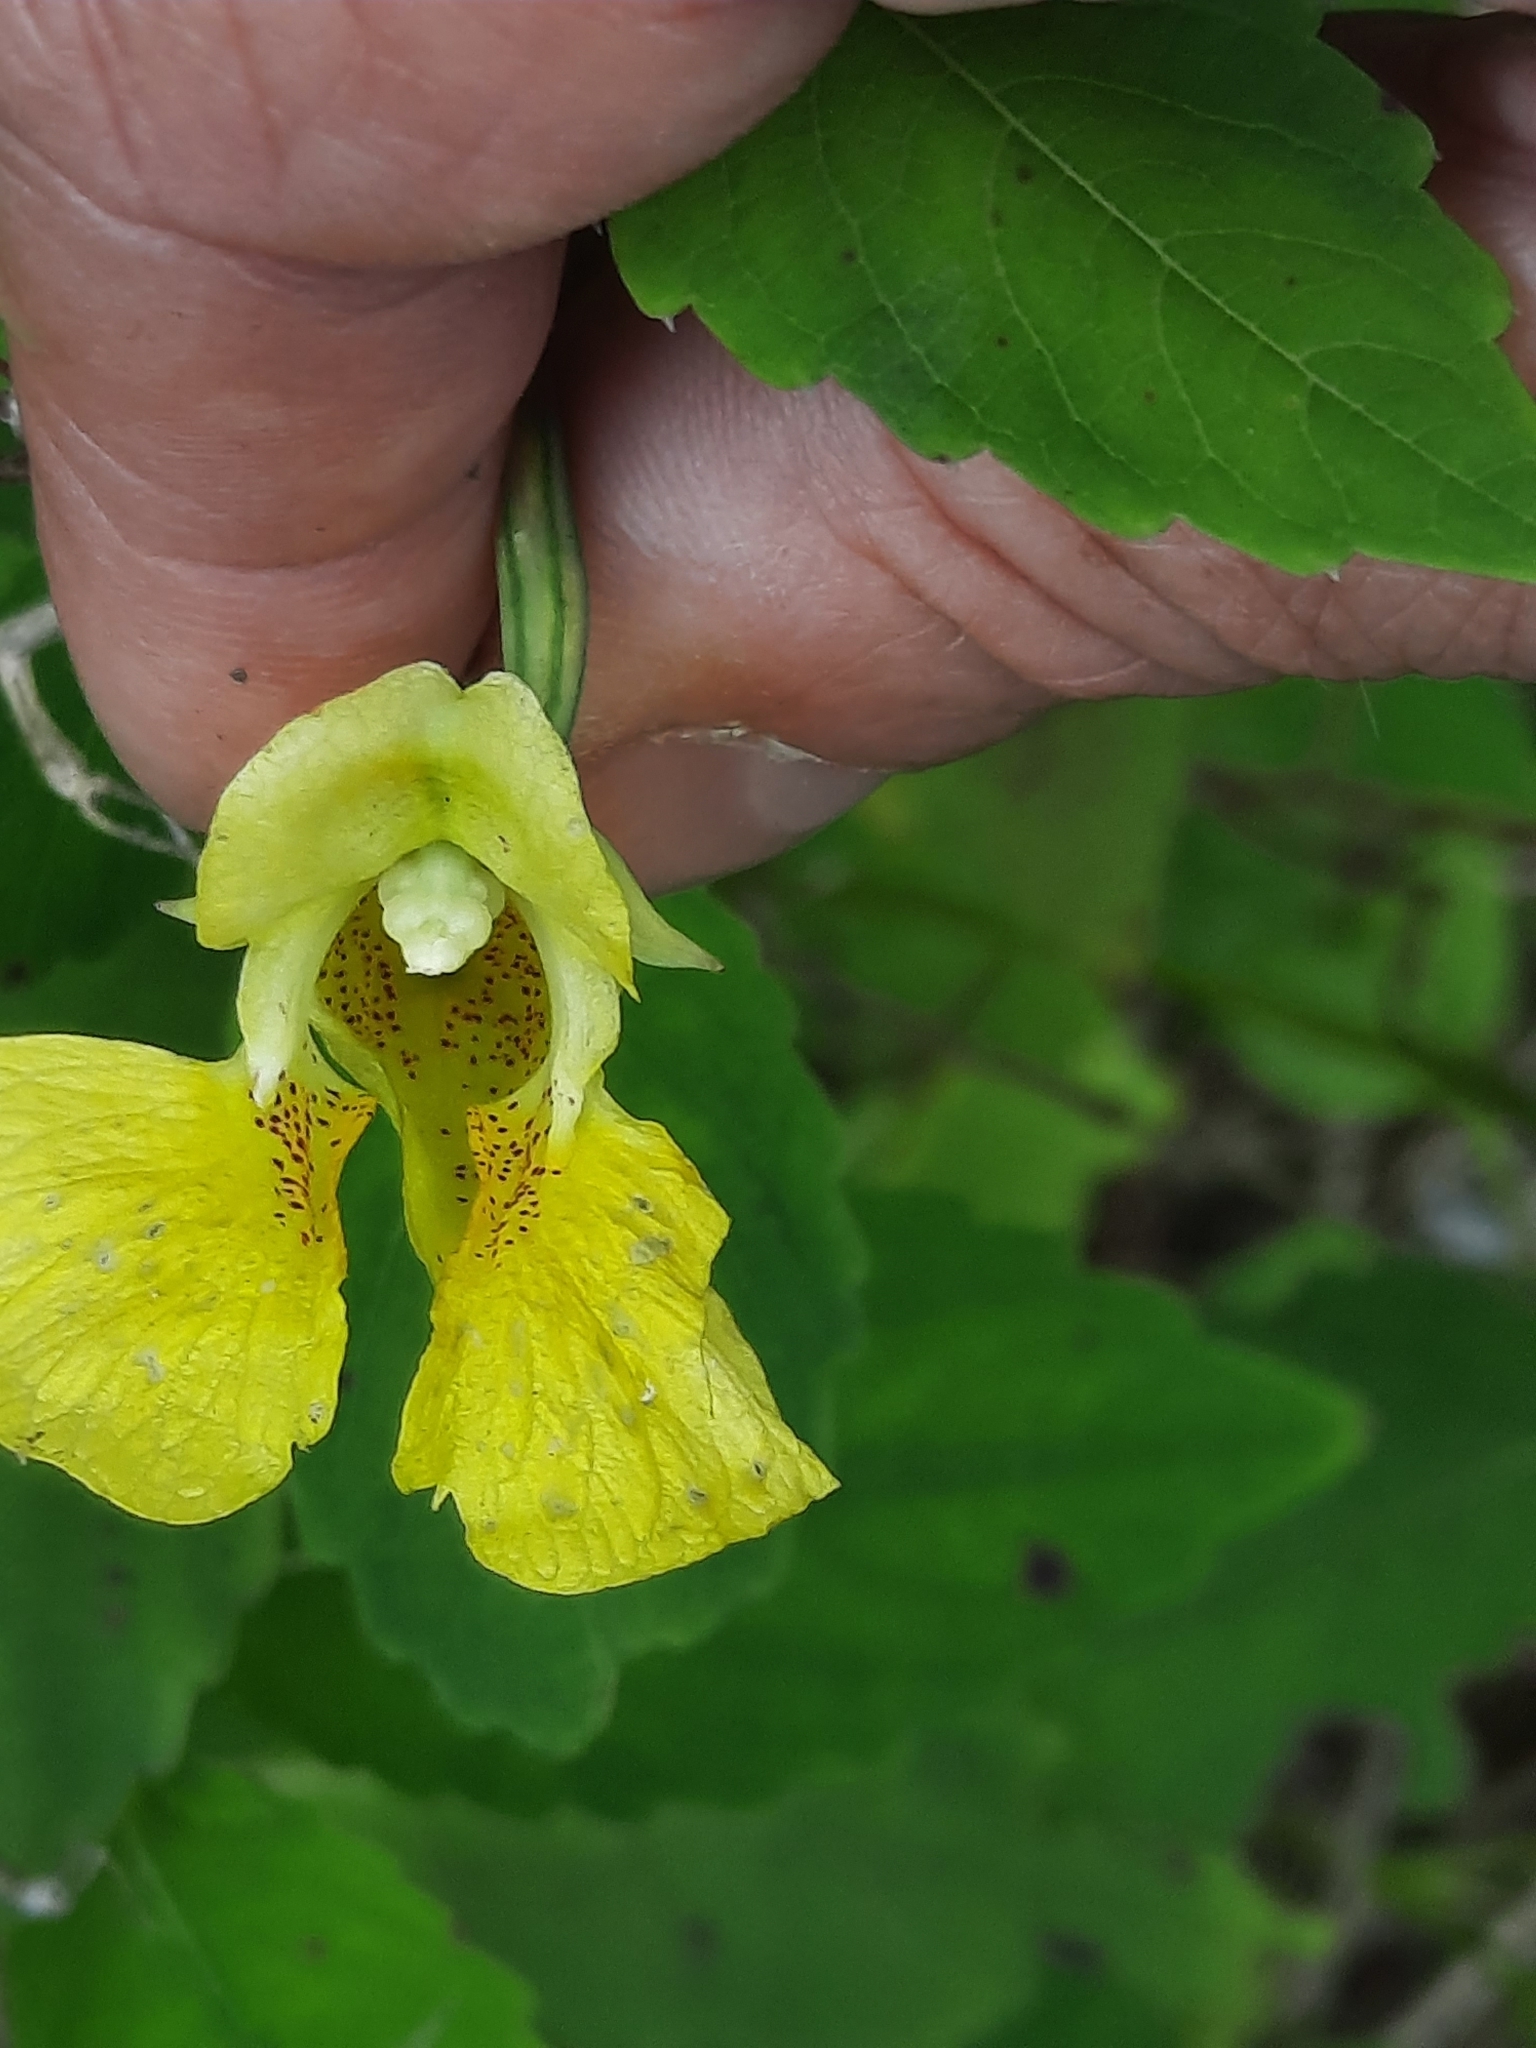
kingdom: Plantae
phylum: Tracheophyta
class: Magnoliopsida
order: Ericales
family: Balsaminaceae
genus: Impatiens
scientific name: Impatiens pallida
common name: Pale snapweed
